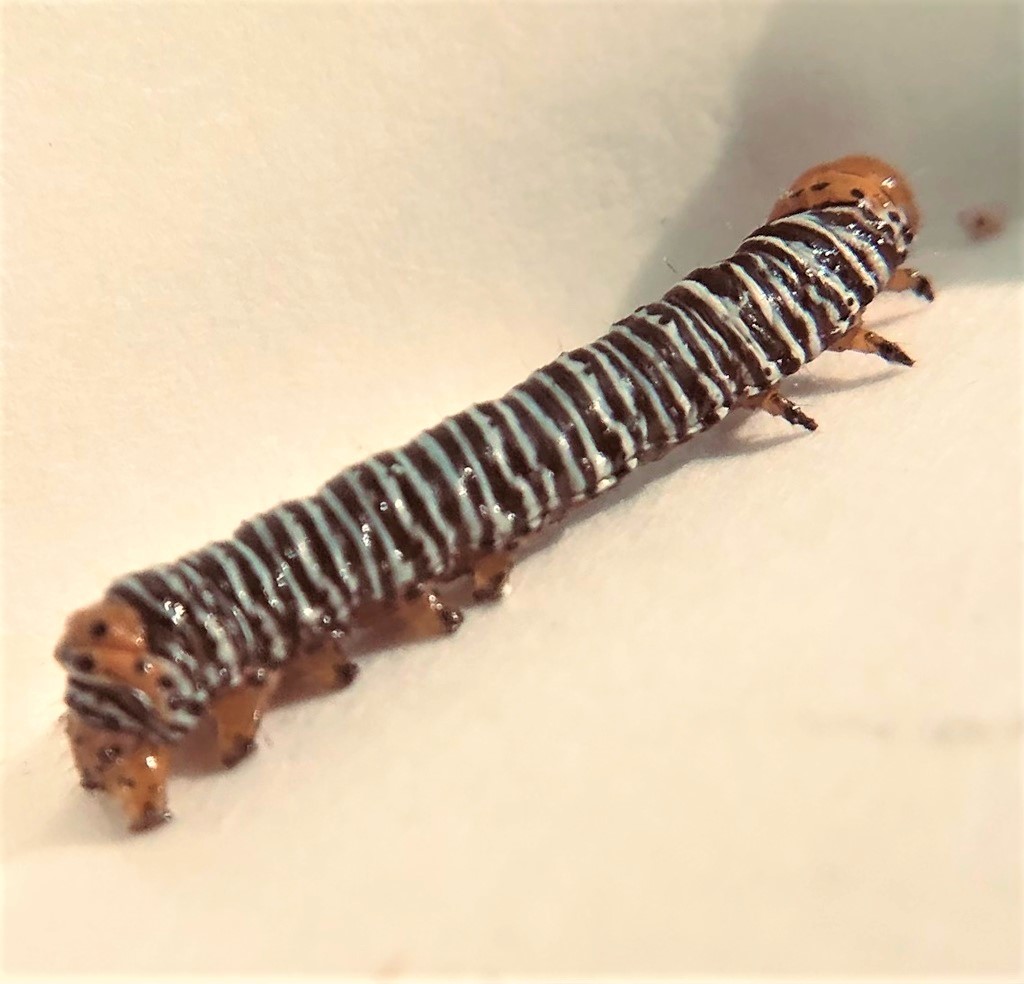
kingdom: Animalia
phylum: Arthropoda
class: Insecta
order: Lepidoptera
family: Noctuidae
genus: Psychomorpha
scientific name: Psychomorpha epimenis
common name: Grapevine epimenis moth
